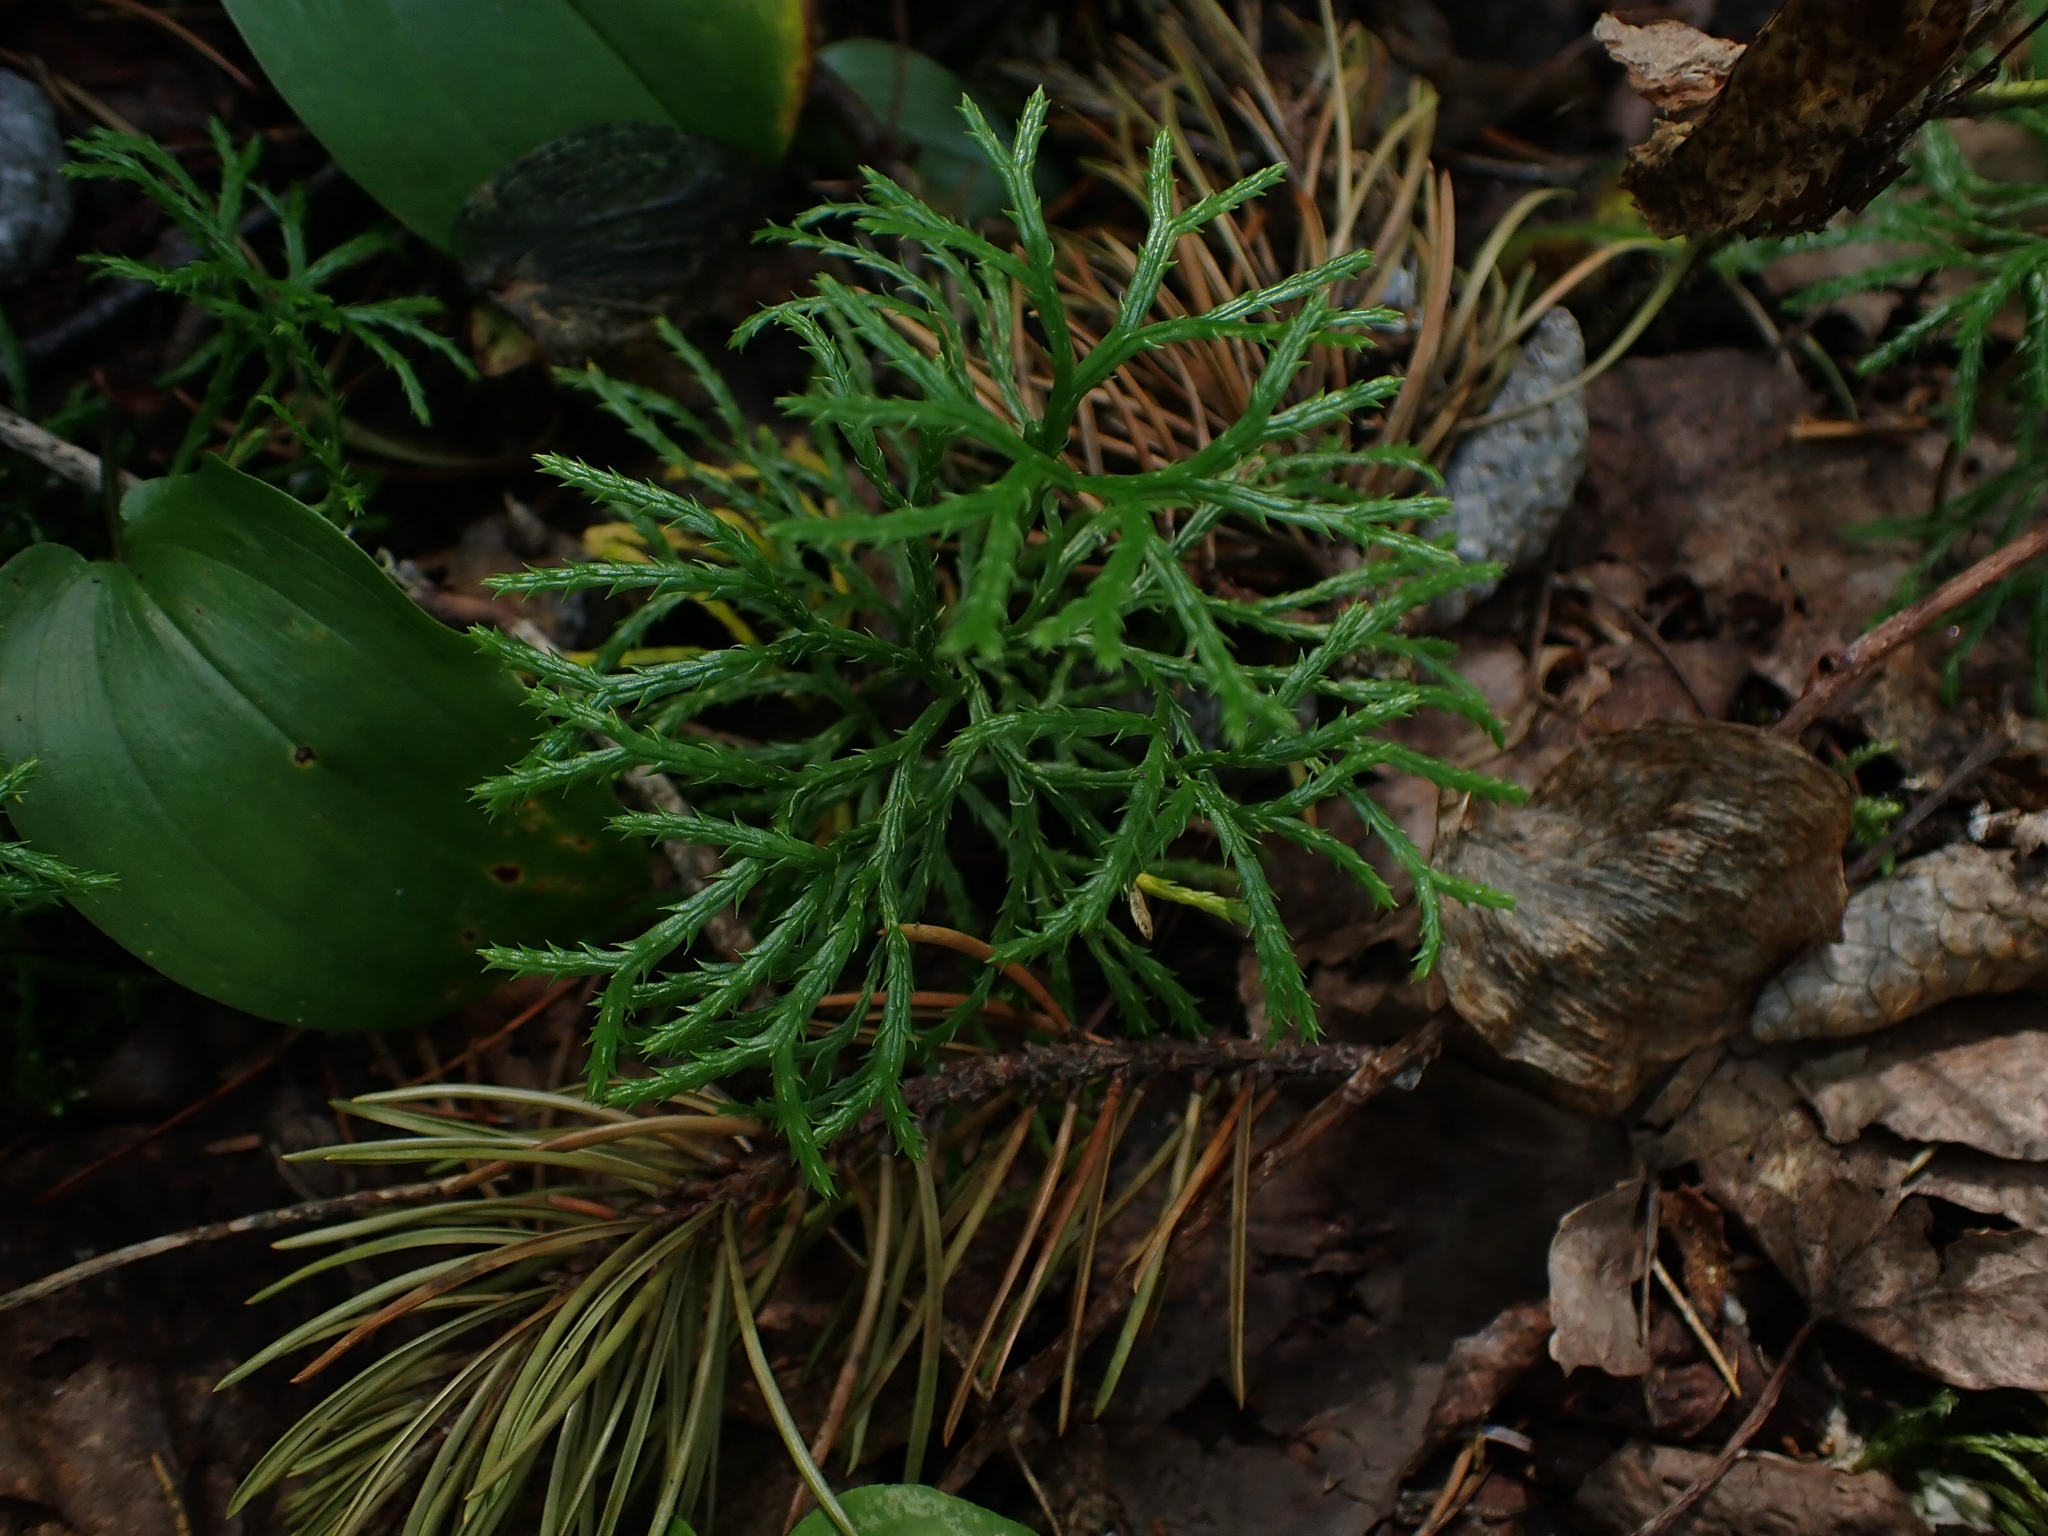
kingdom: Plantae
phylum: Tracheophyta
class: Lycopodiopsida
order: Lycopodiales
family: Lycopodiaceae
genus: Diphasiastrum
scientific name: Diphasiastrum complanatum
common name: Northern running-pine
